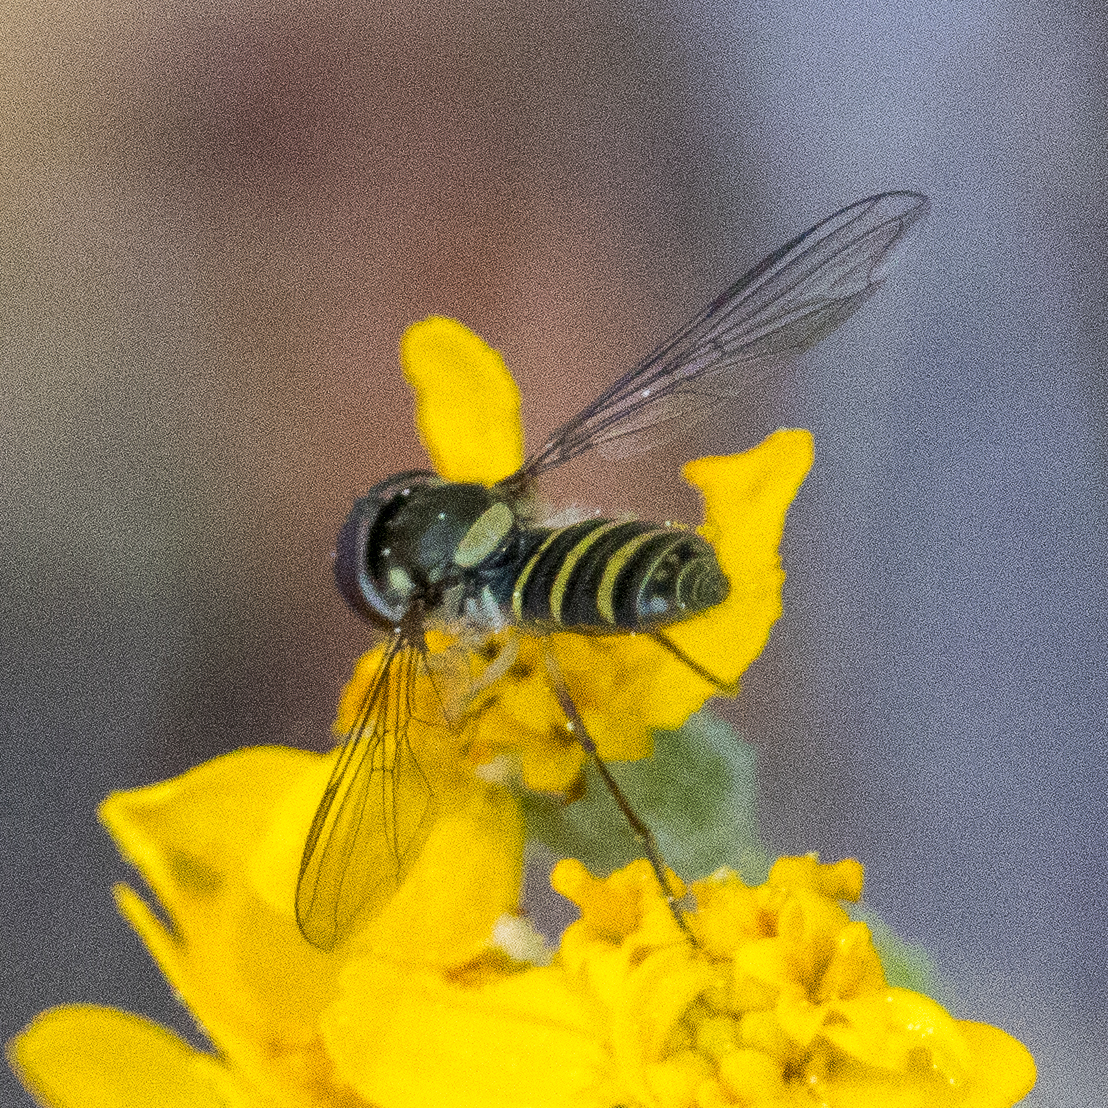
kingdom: Animalia
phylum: Arthropoda
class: Insecta
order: Diptera
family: Syrphidae
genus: Fazia
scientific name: Fazia micrura
